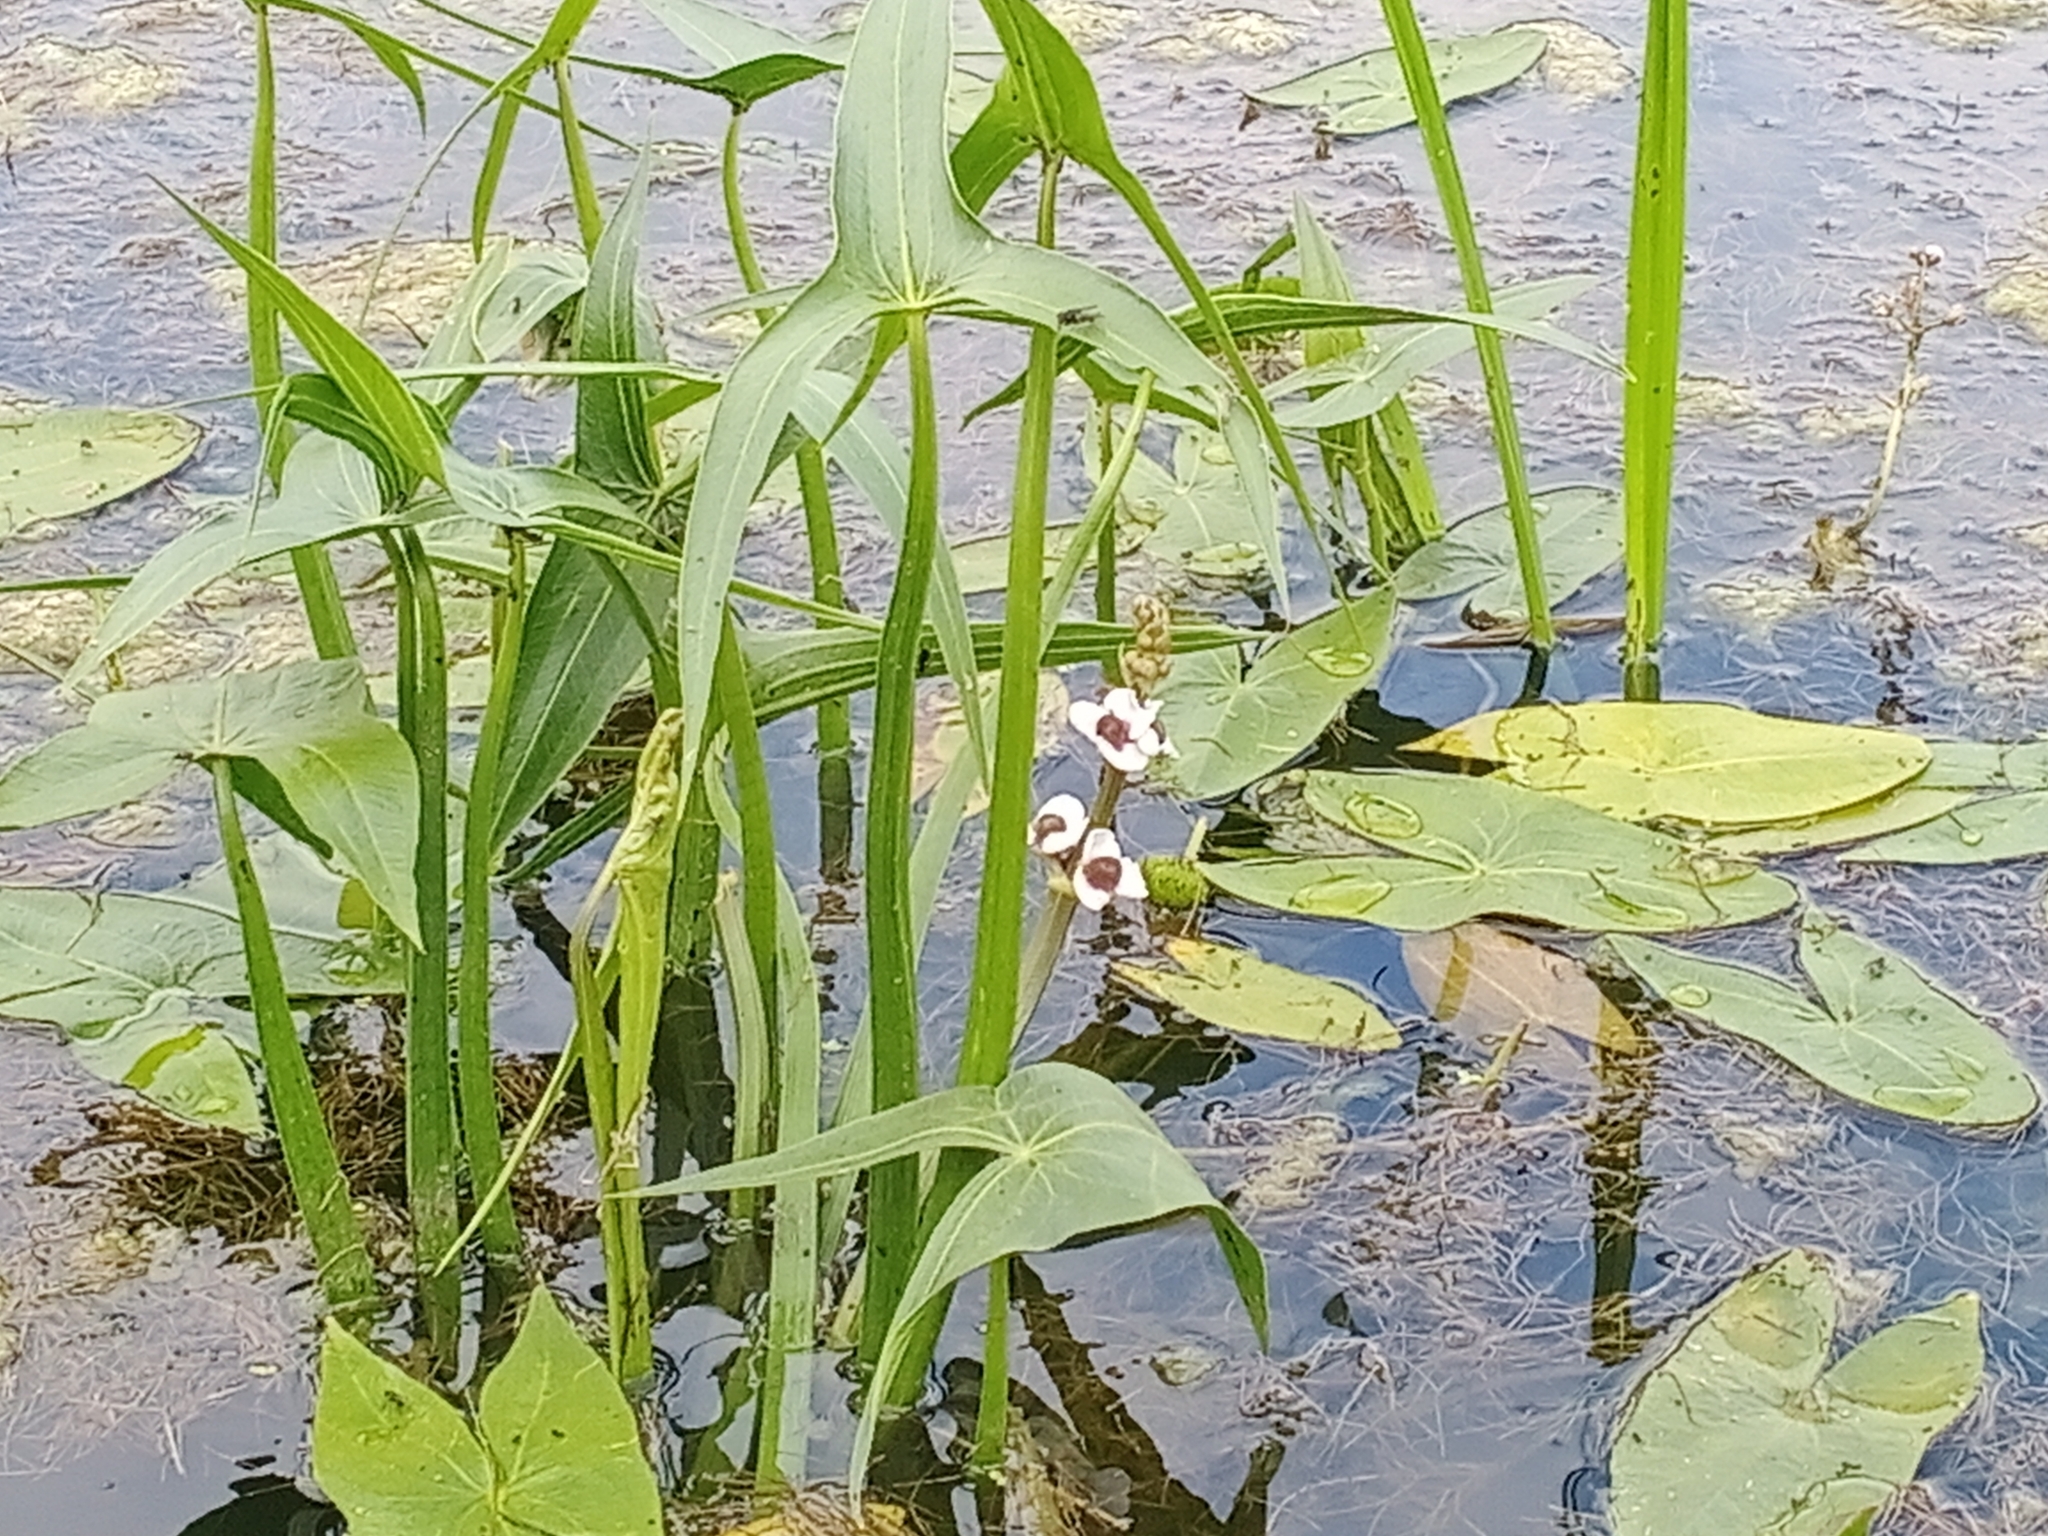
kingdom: Plantae
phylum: Tracheophyta
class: Liliopsida
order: Alismatales
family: Alismataceae
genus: Sagittaria
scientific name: Sagittaria sagittifolia
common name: Arrowhead
